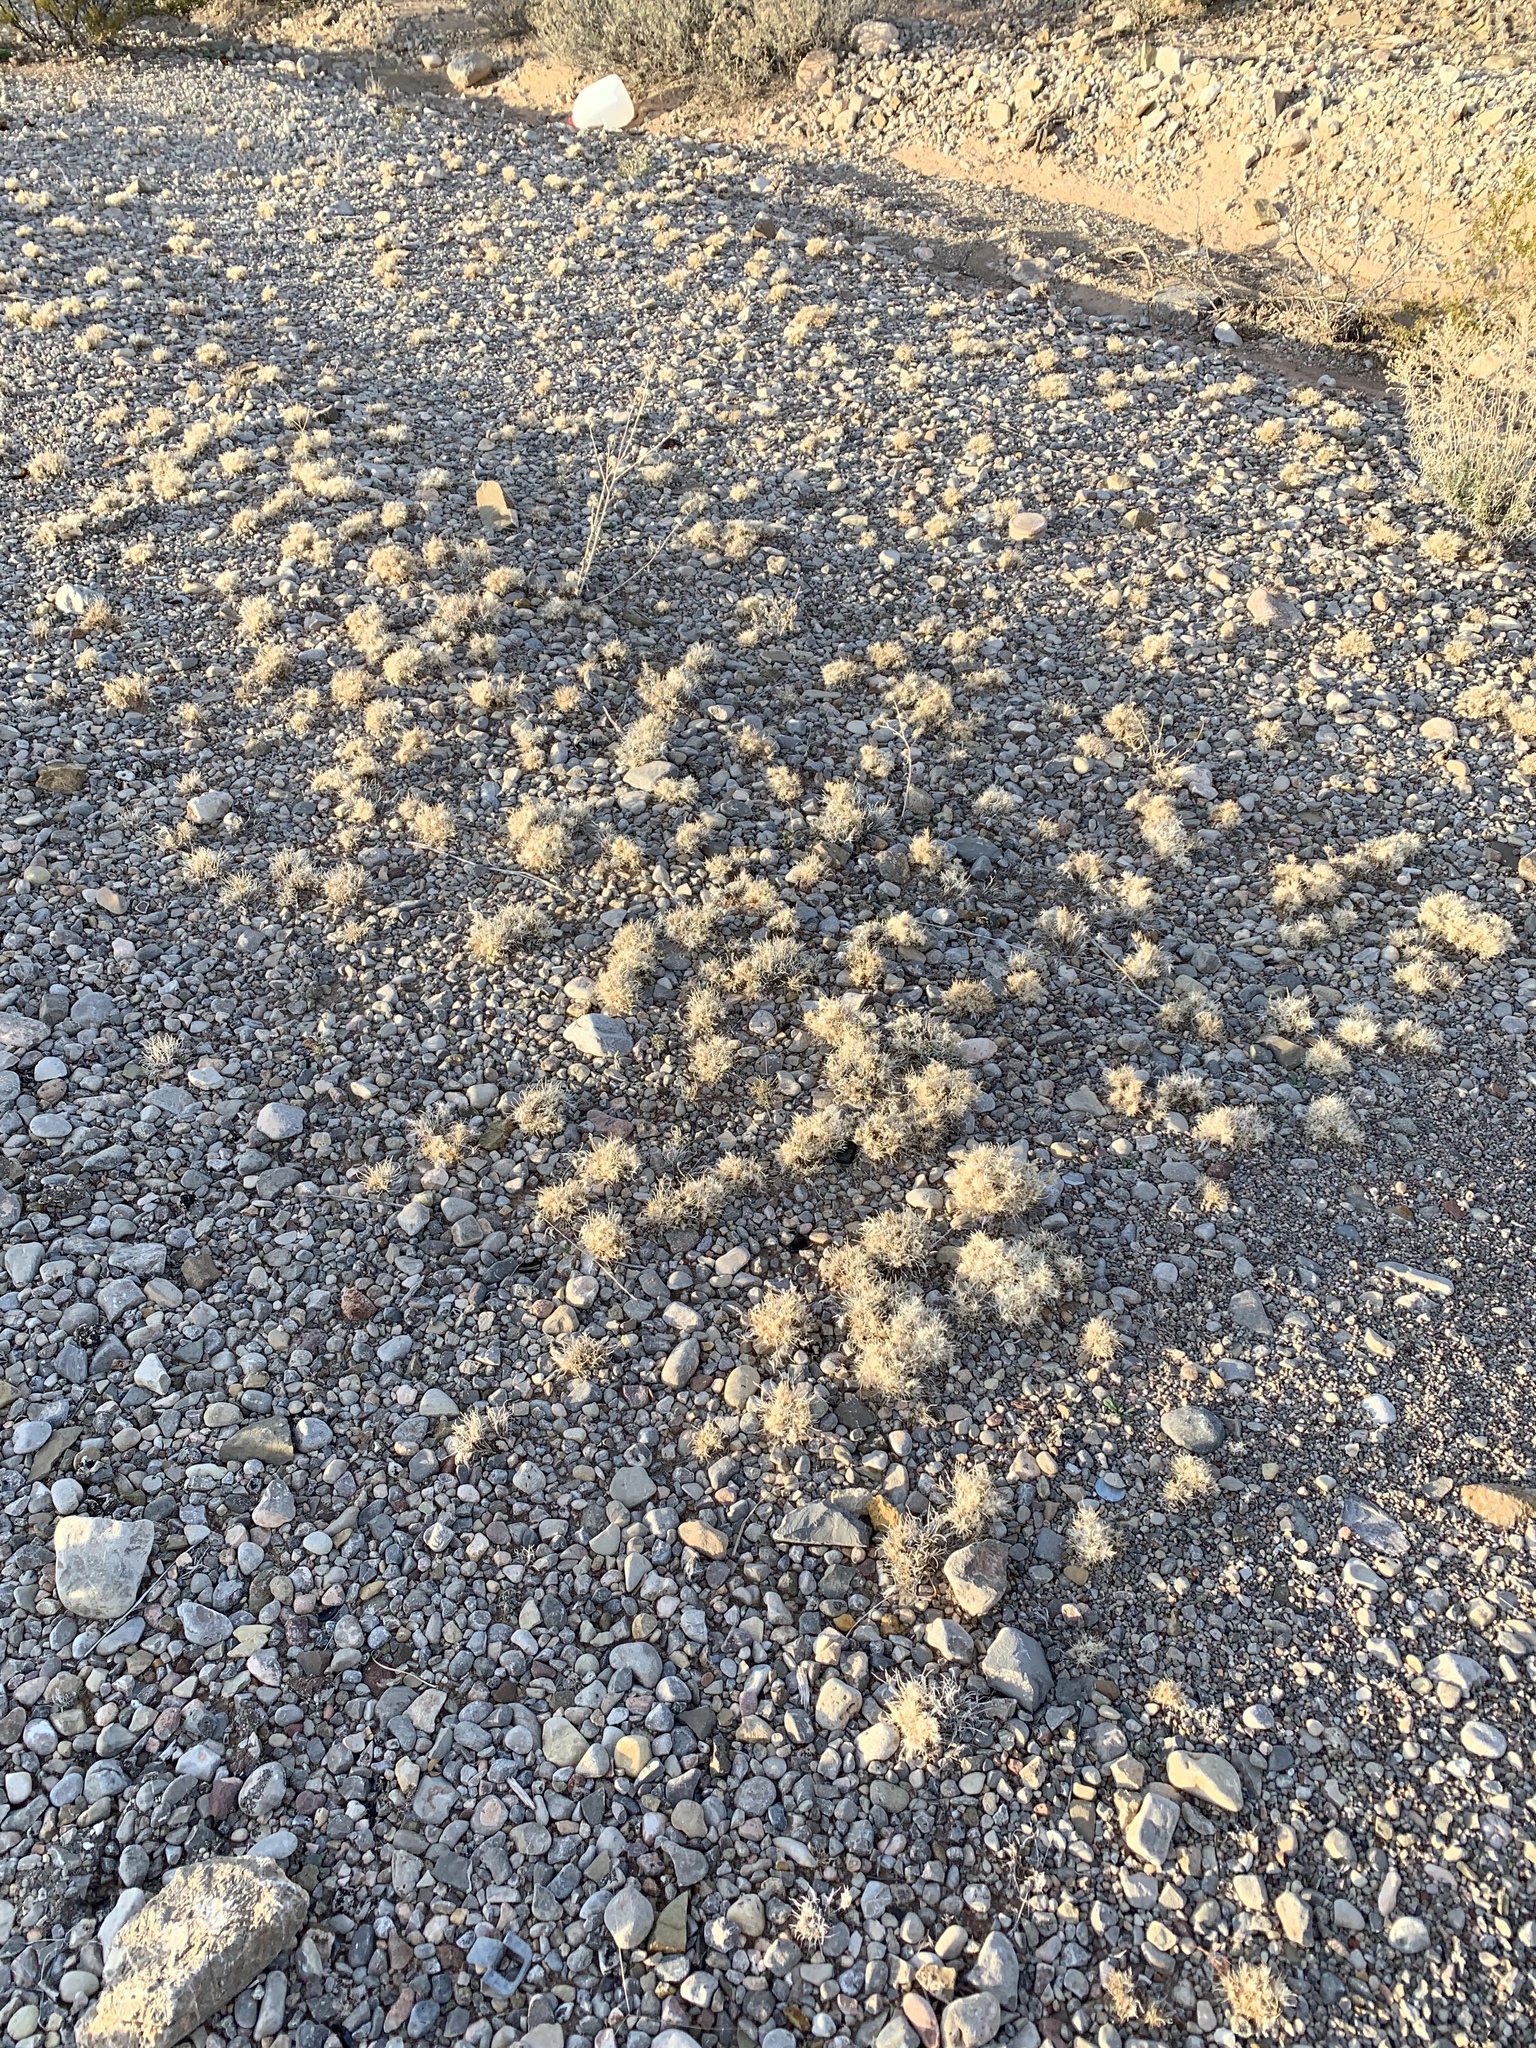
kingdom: Plantae
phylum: Tracheophyta
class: Liliopsida
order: Poales
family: Poaceae
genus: Dasyochloa
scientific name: Dasyochloa pulchella
